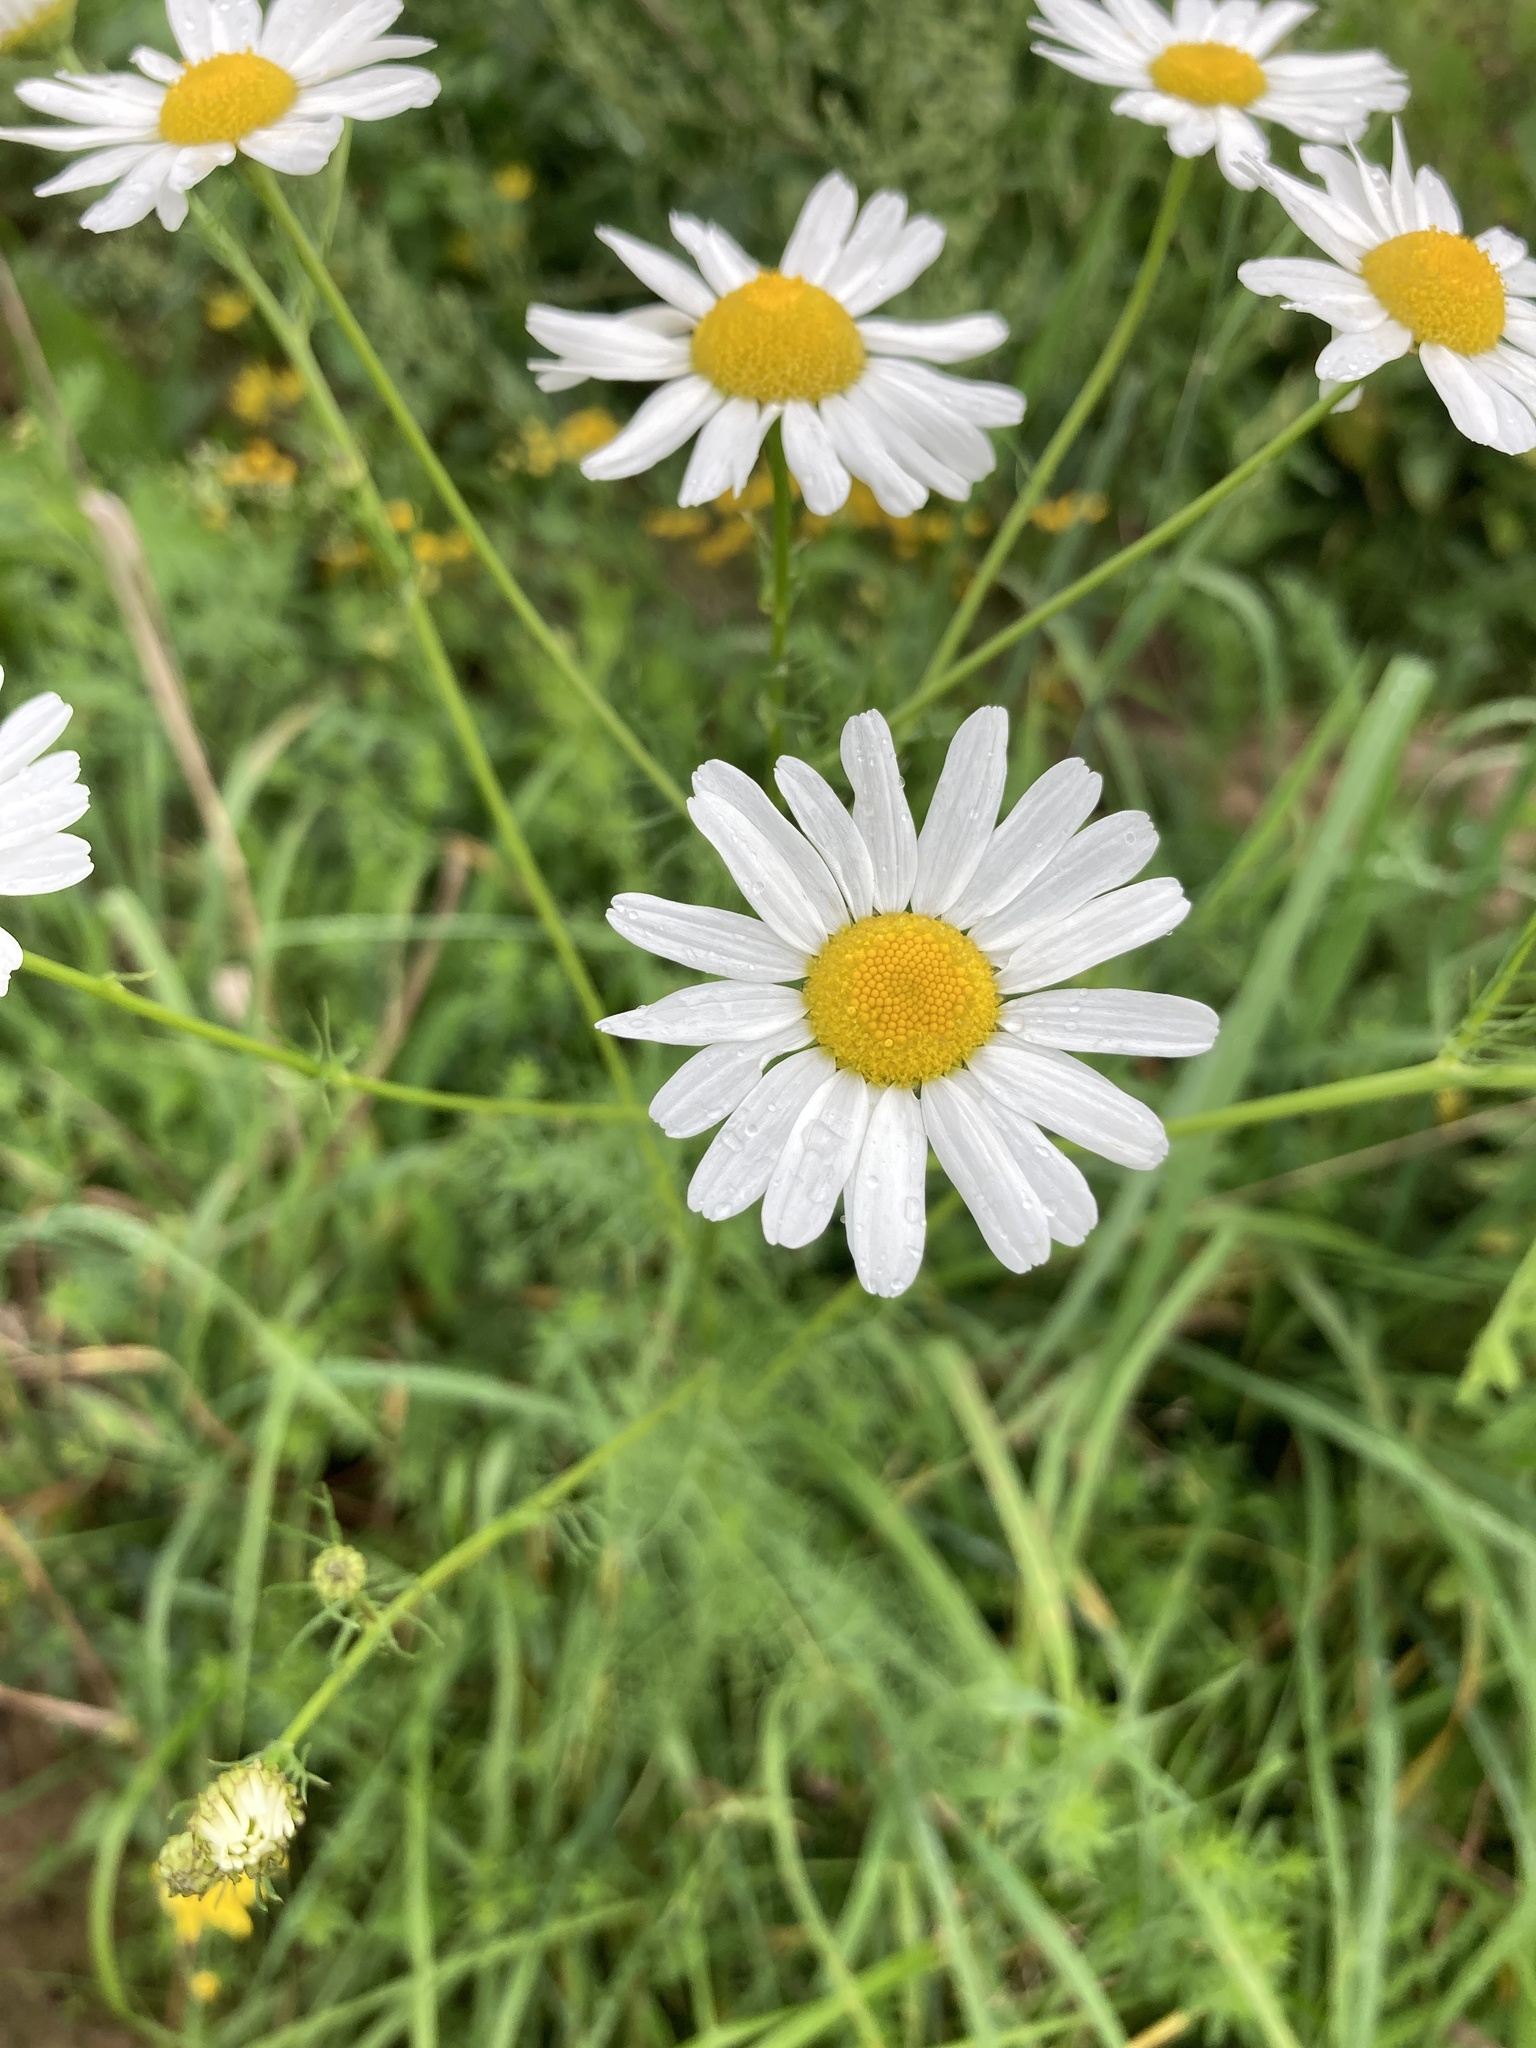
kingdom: Plantae
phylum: Tracheophyta
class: Magnoliopsida
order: Asterales
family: Asteraceae
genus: Tripleurospermum
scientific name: Tripleurospermum inodorum
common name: Scentless mayweed
